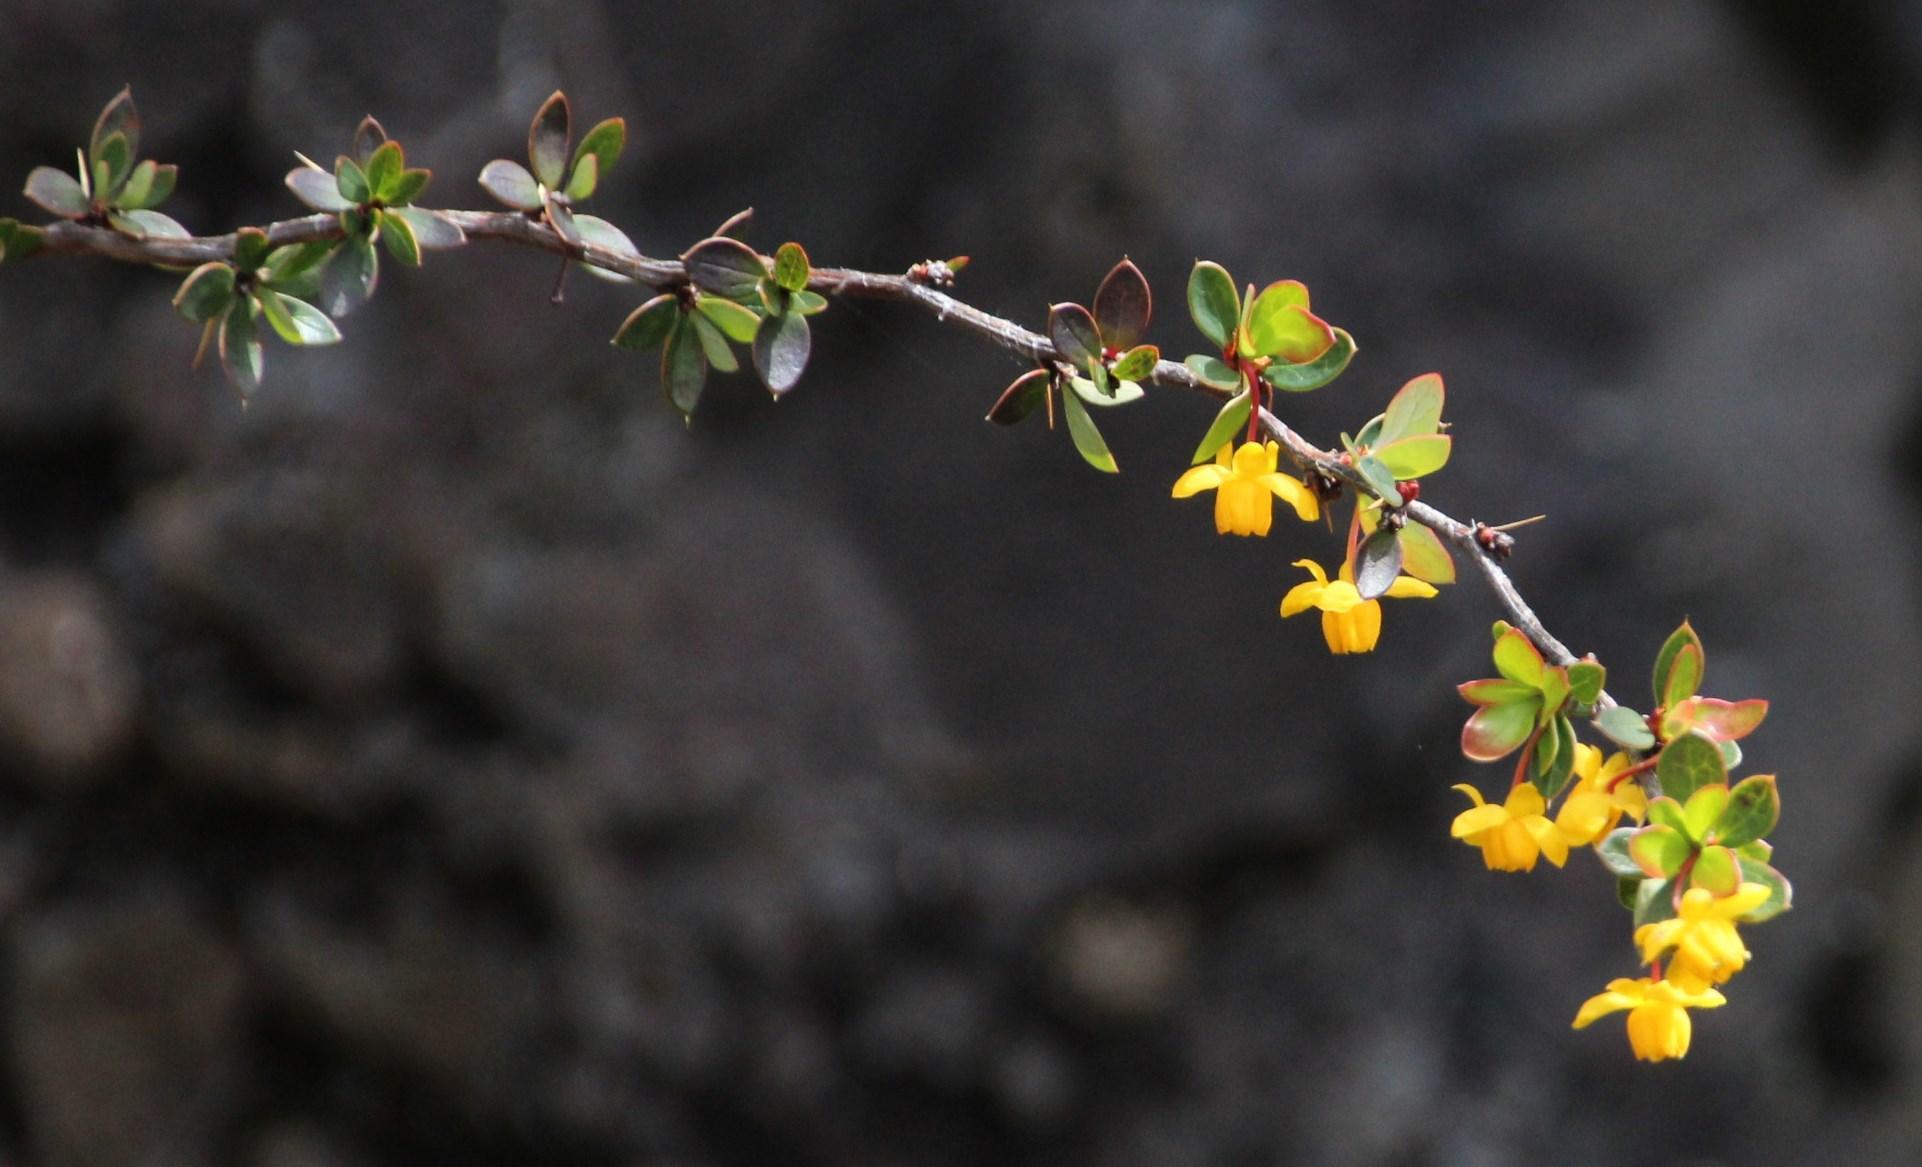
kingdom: Plantae
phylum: Tracheophyta
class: Magnoliopsida
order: Ranunculales
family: Berberidaceae
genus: Berberis
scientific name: Berberis microphylla
